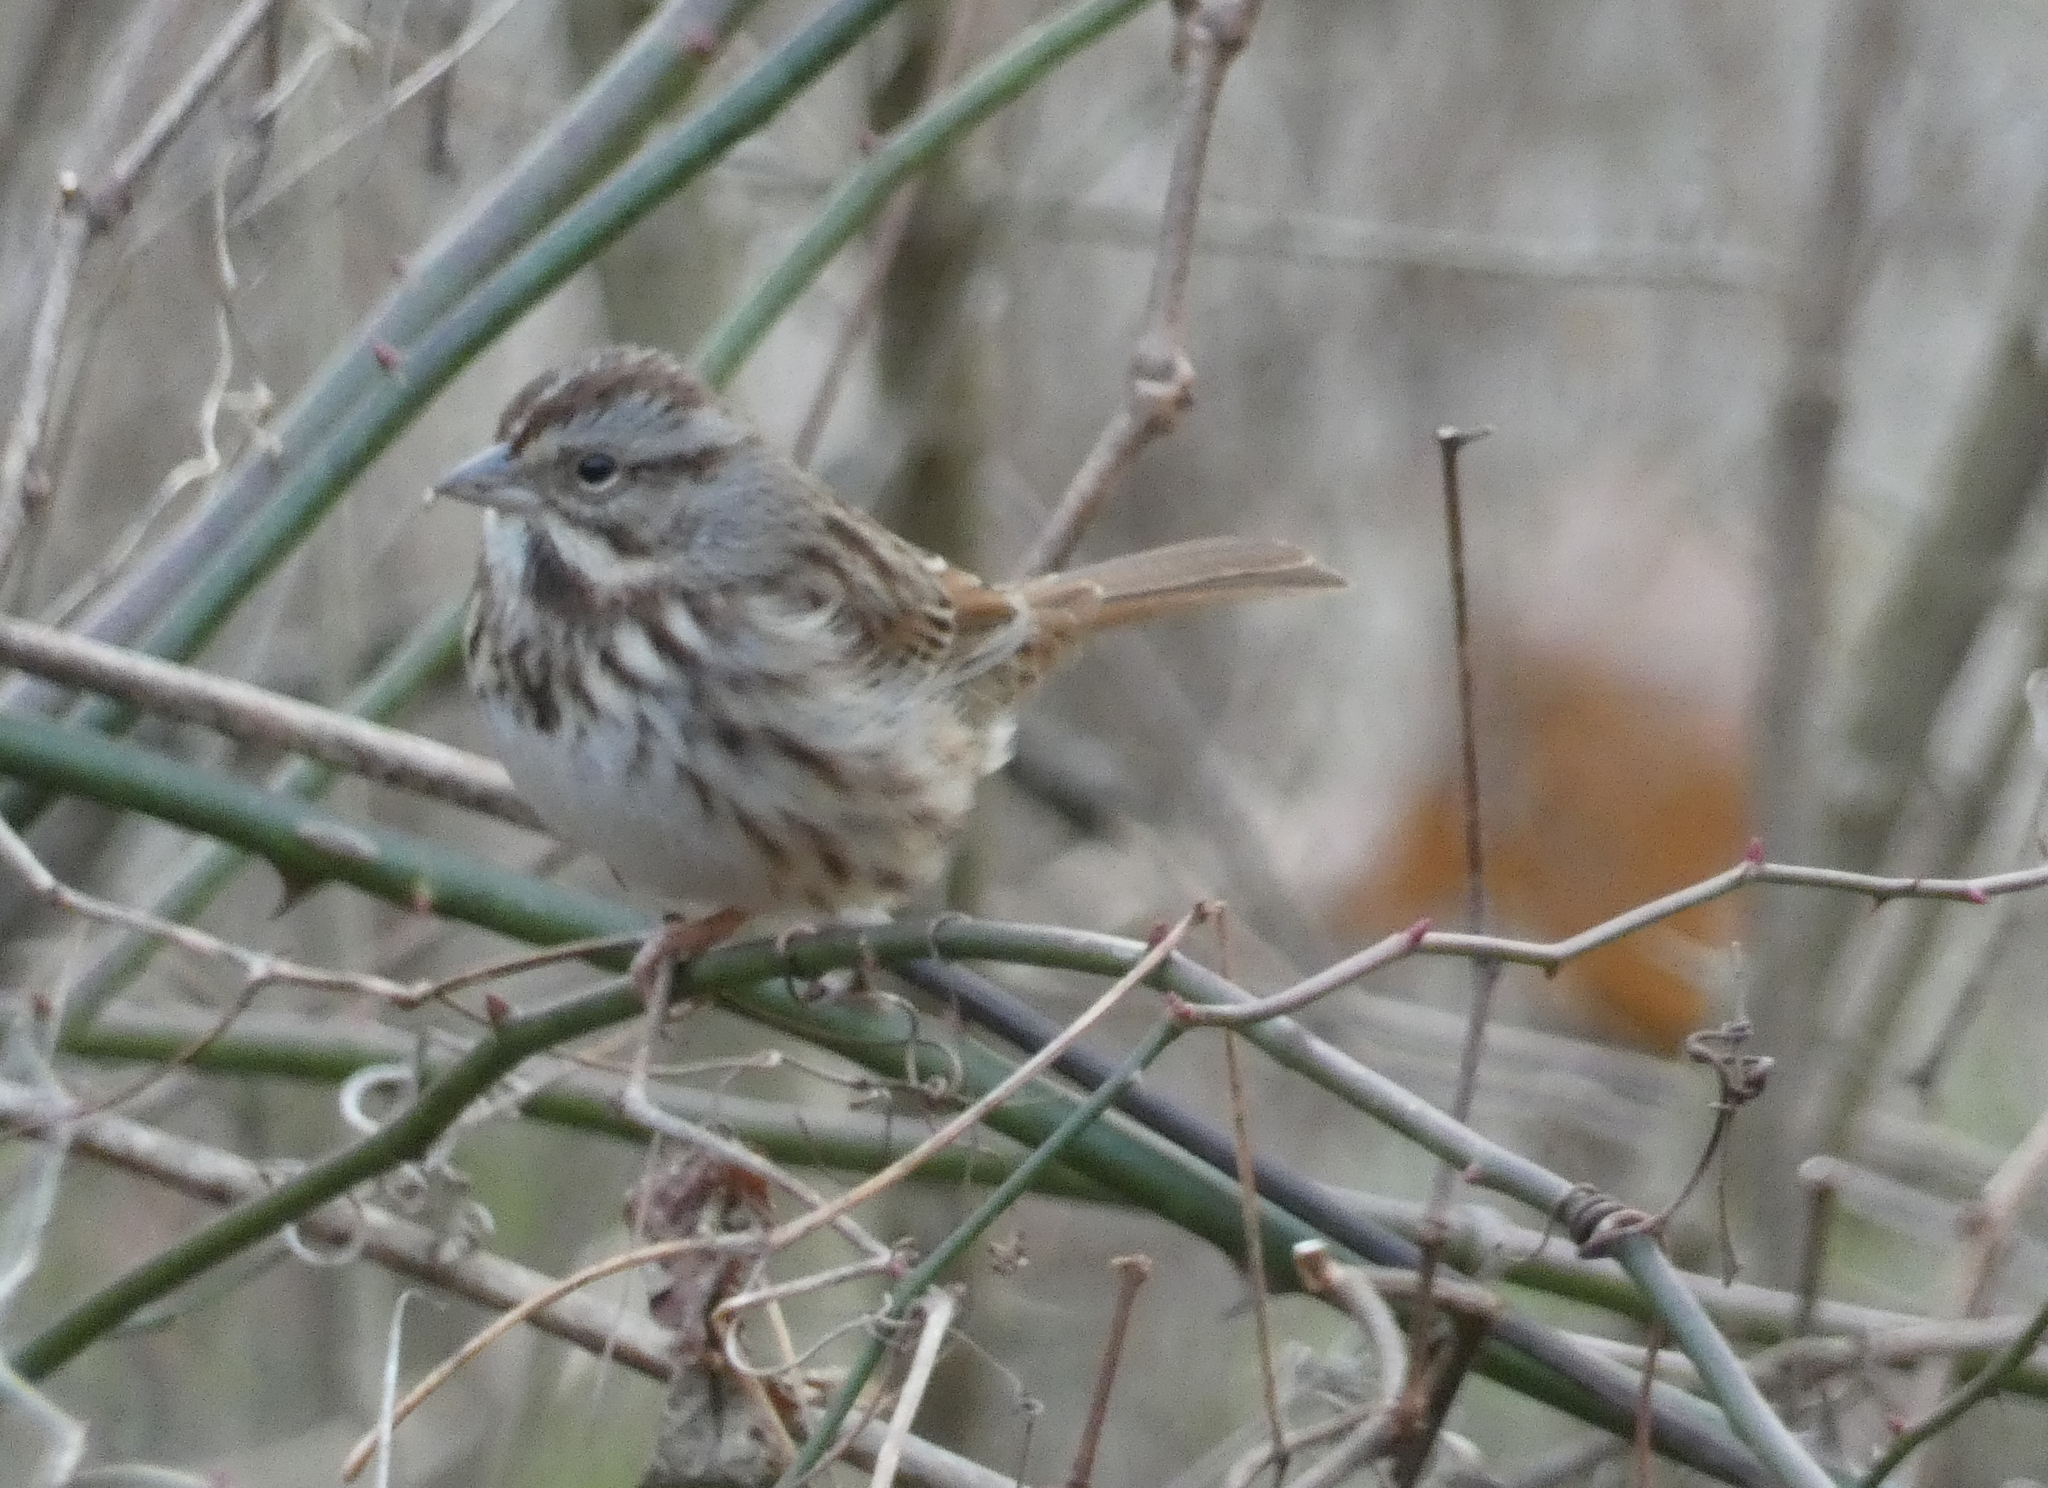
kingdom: Animalia
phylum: Chordata
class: Aves
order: Passeriformes
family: Passerellidae
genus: Melospiza
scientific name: Melospiza melodia
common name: Song sparrow
